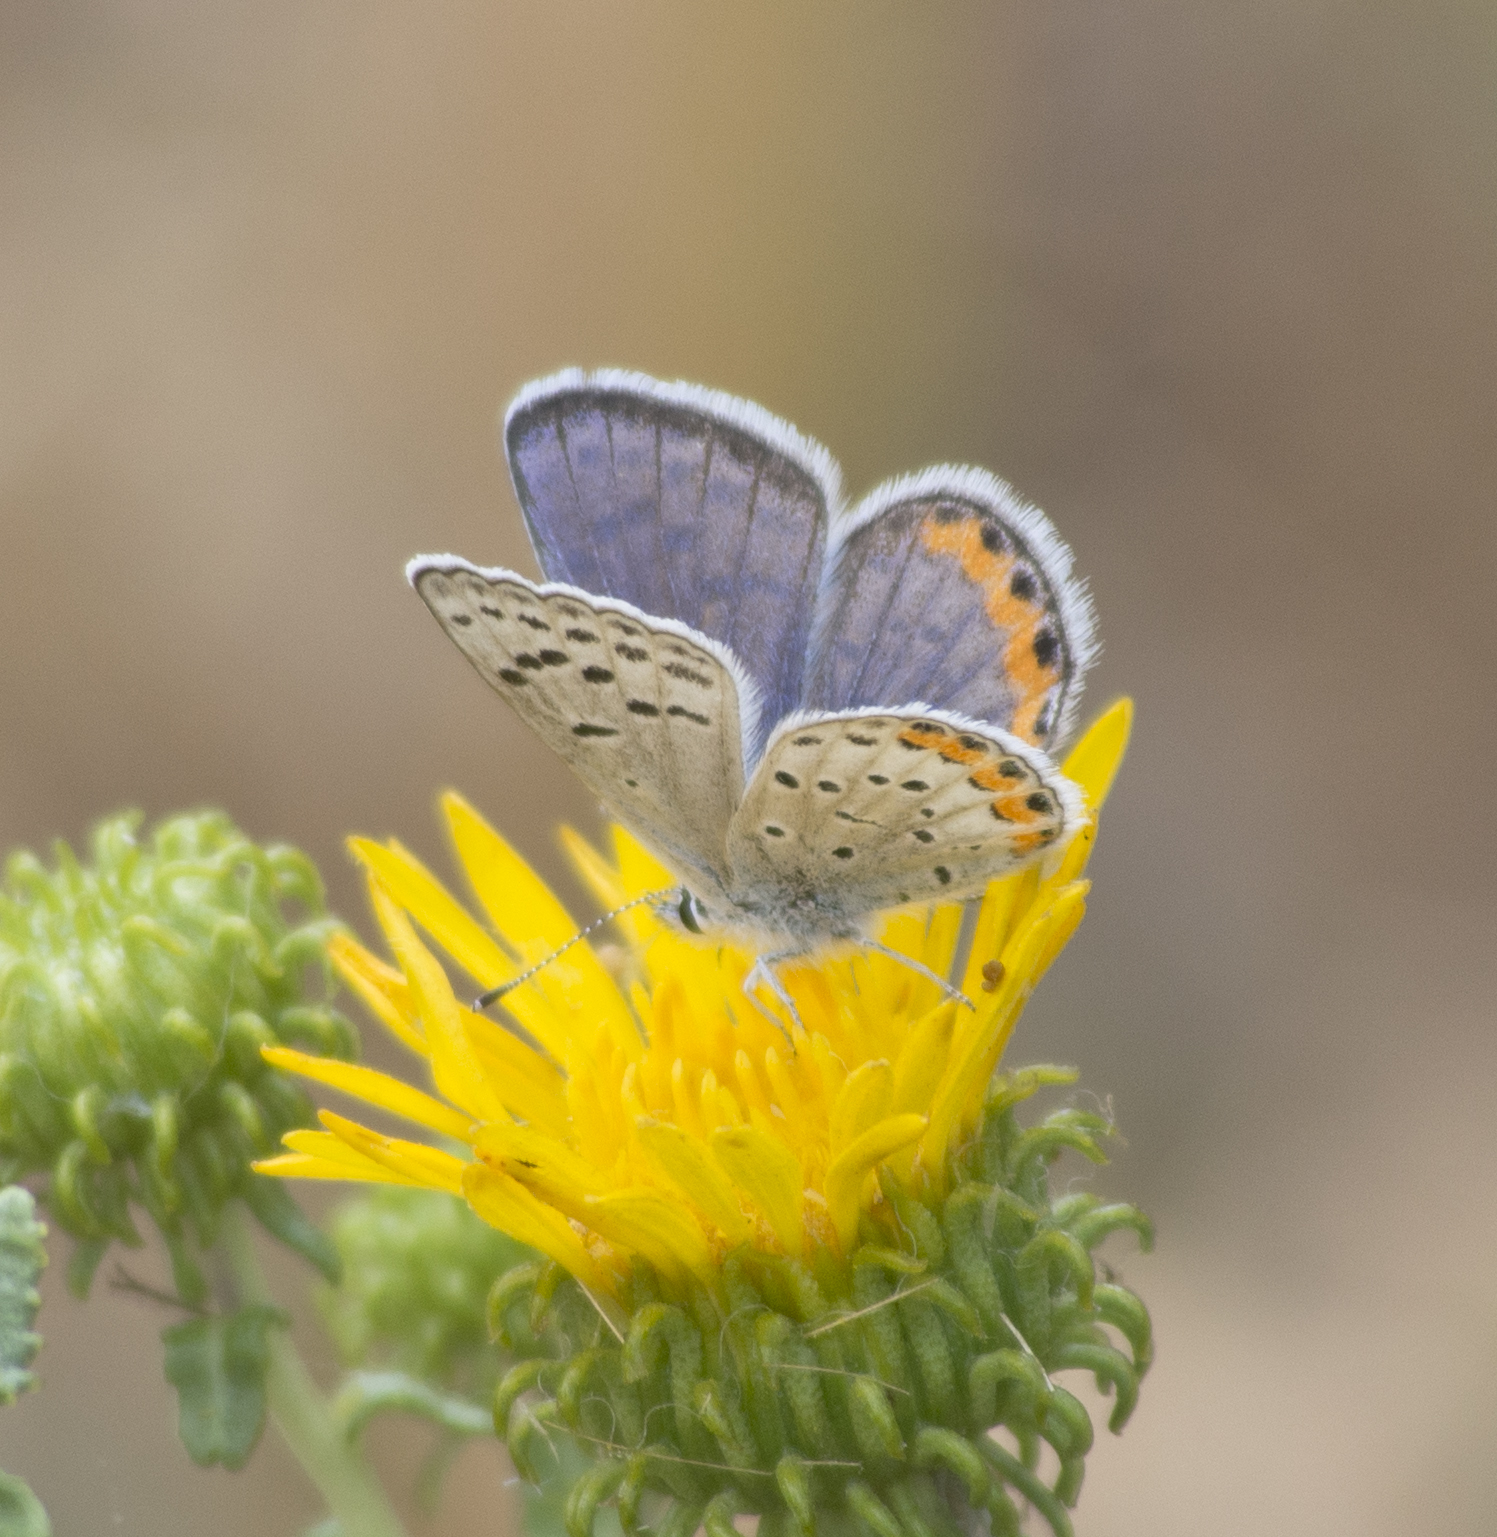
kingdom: Animalia
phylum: Arthropoda
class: Insecta
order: Lepidoptera
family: Lycaenidae
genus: Icaricia
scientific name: Icaricia lupini
